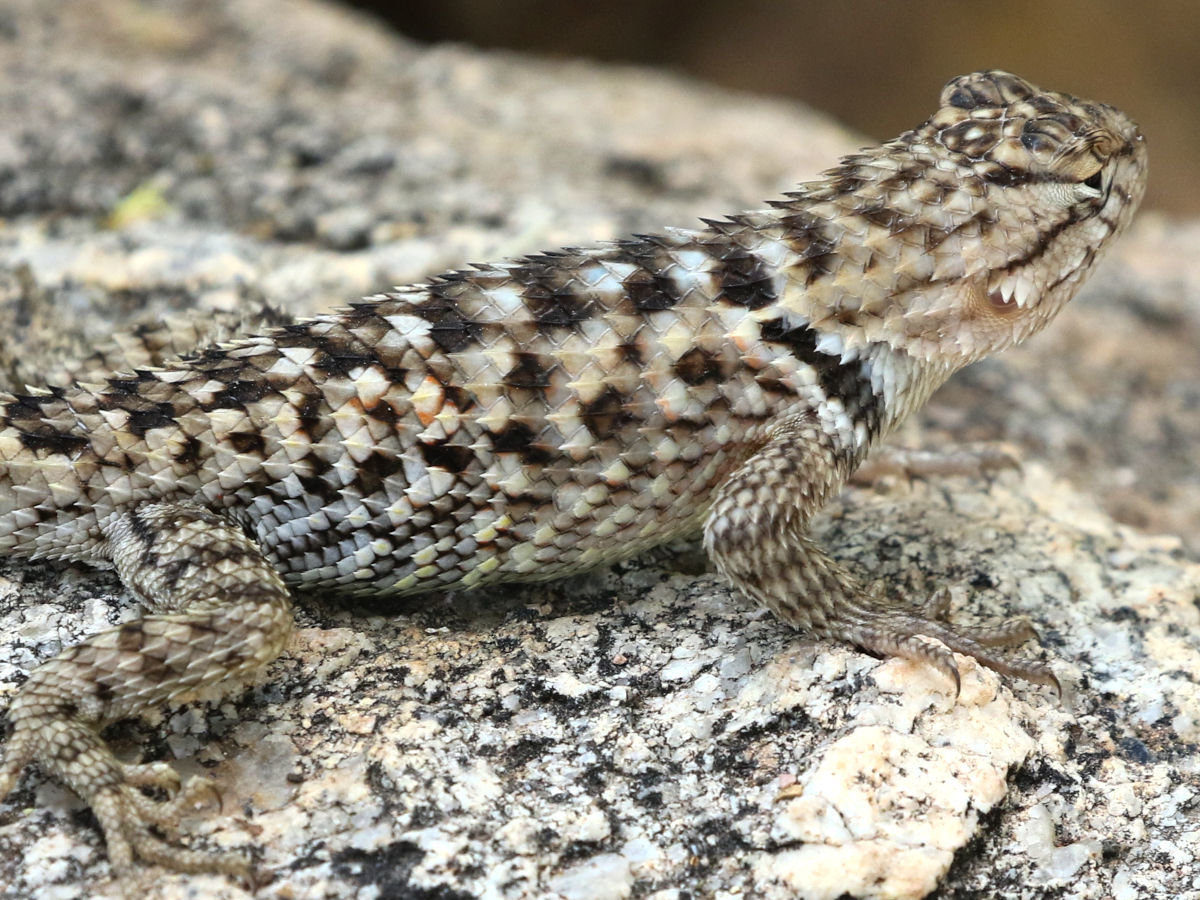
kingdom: Animalia
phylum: Chordata
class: Squamata
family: Phrynosomatidae
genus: Sceloporus
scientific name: Sceloporus magister
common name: Desert spiny lizard
